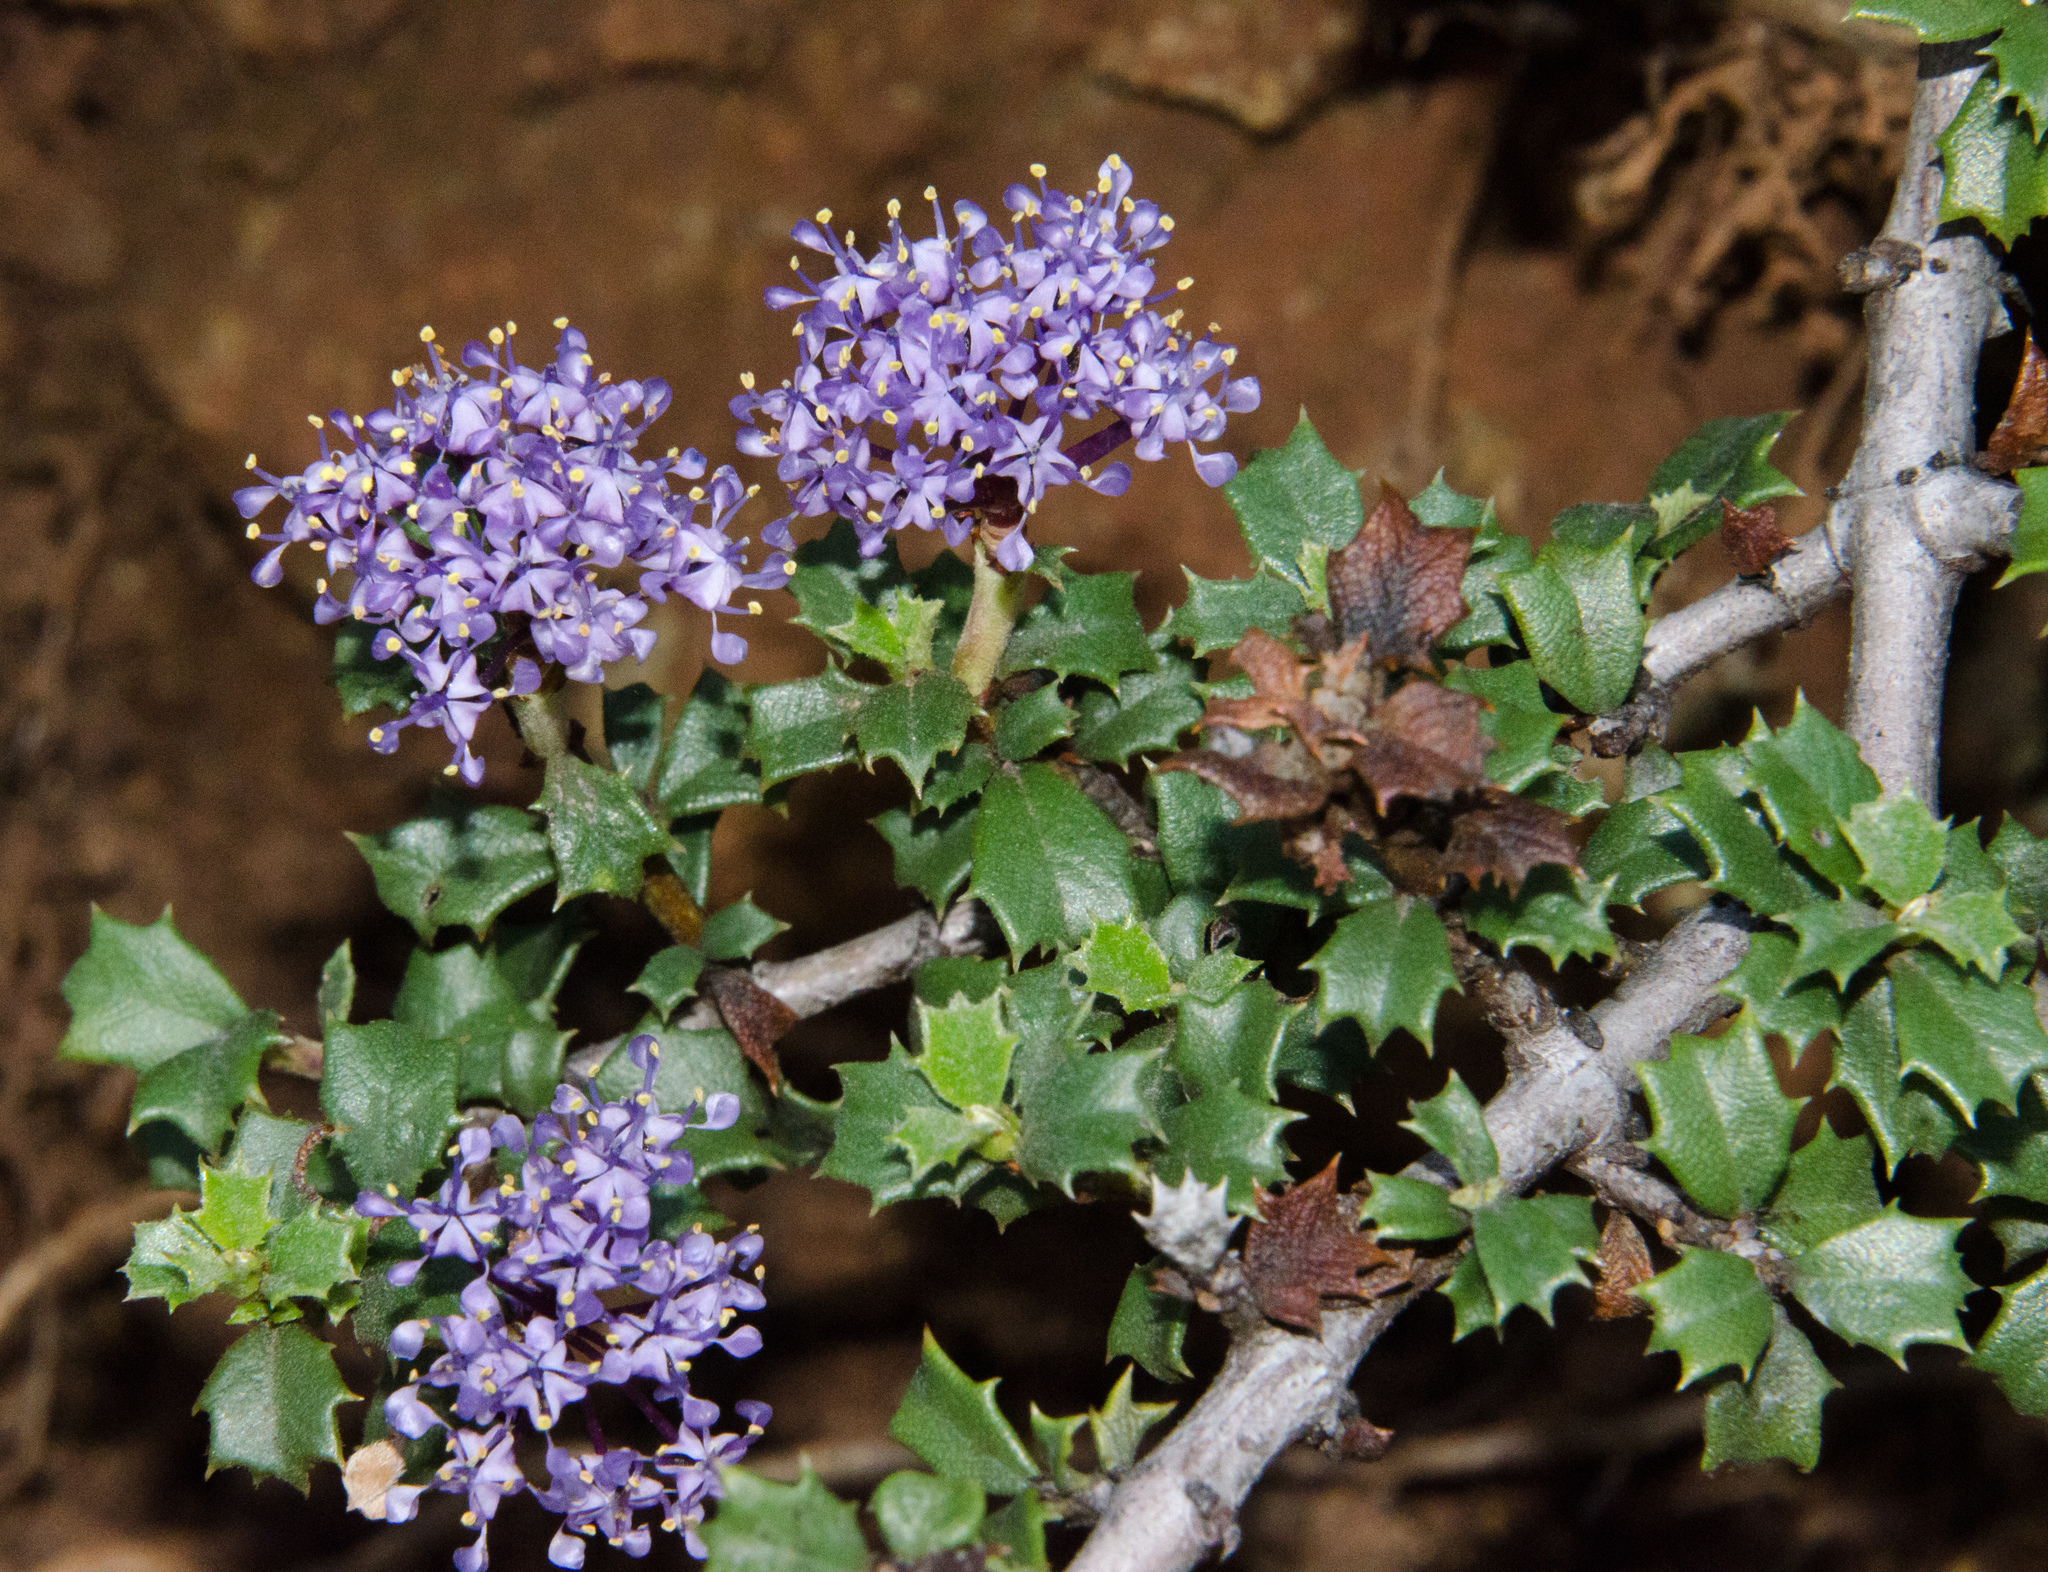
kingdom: Plantae
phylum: Tracheophyta
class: Magnoliopsida
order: Rosales
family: Rhamnaceae
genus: Ceanothus
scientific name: Ceanothus jepsonii
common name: Muskbrush
